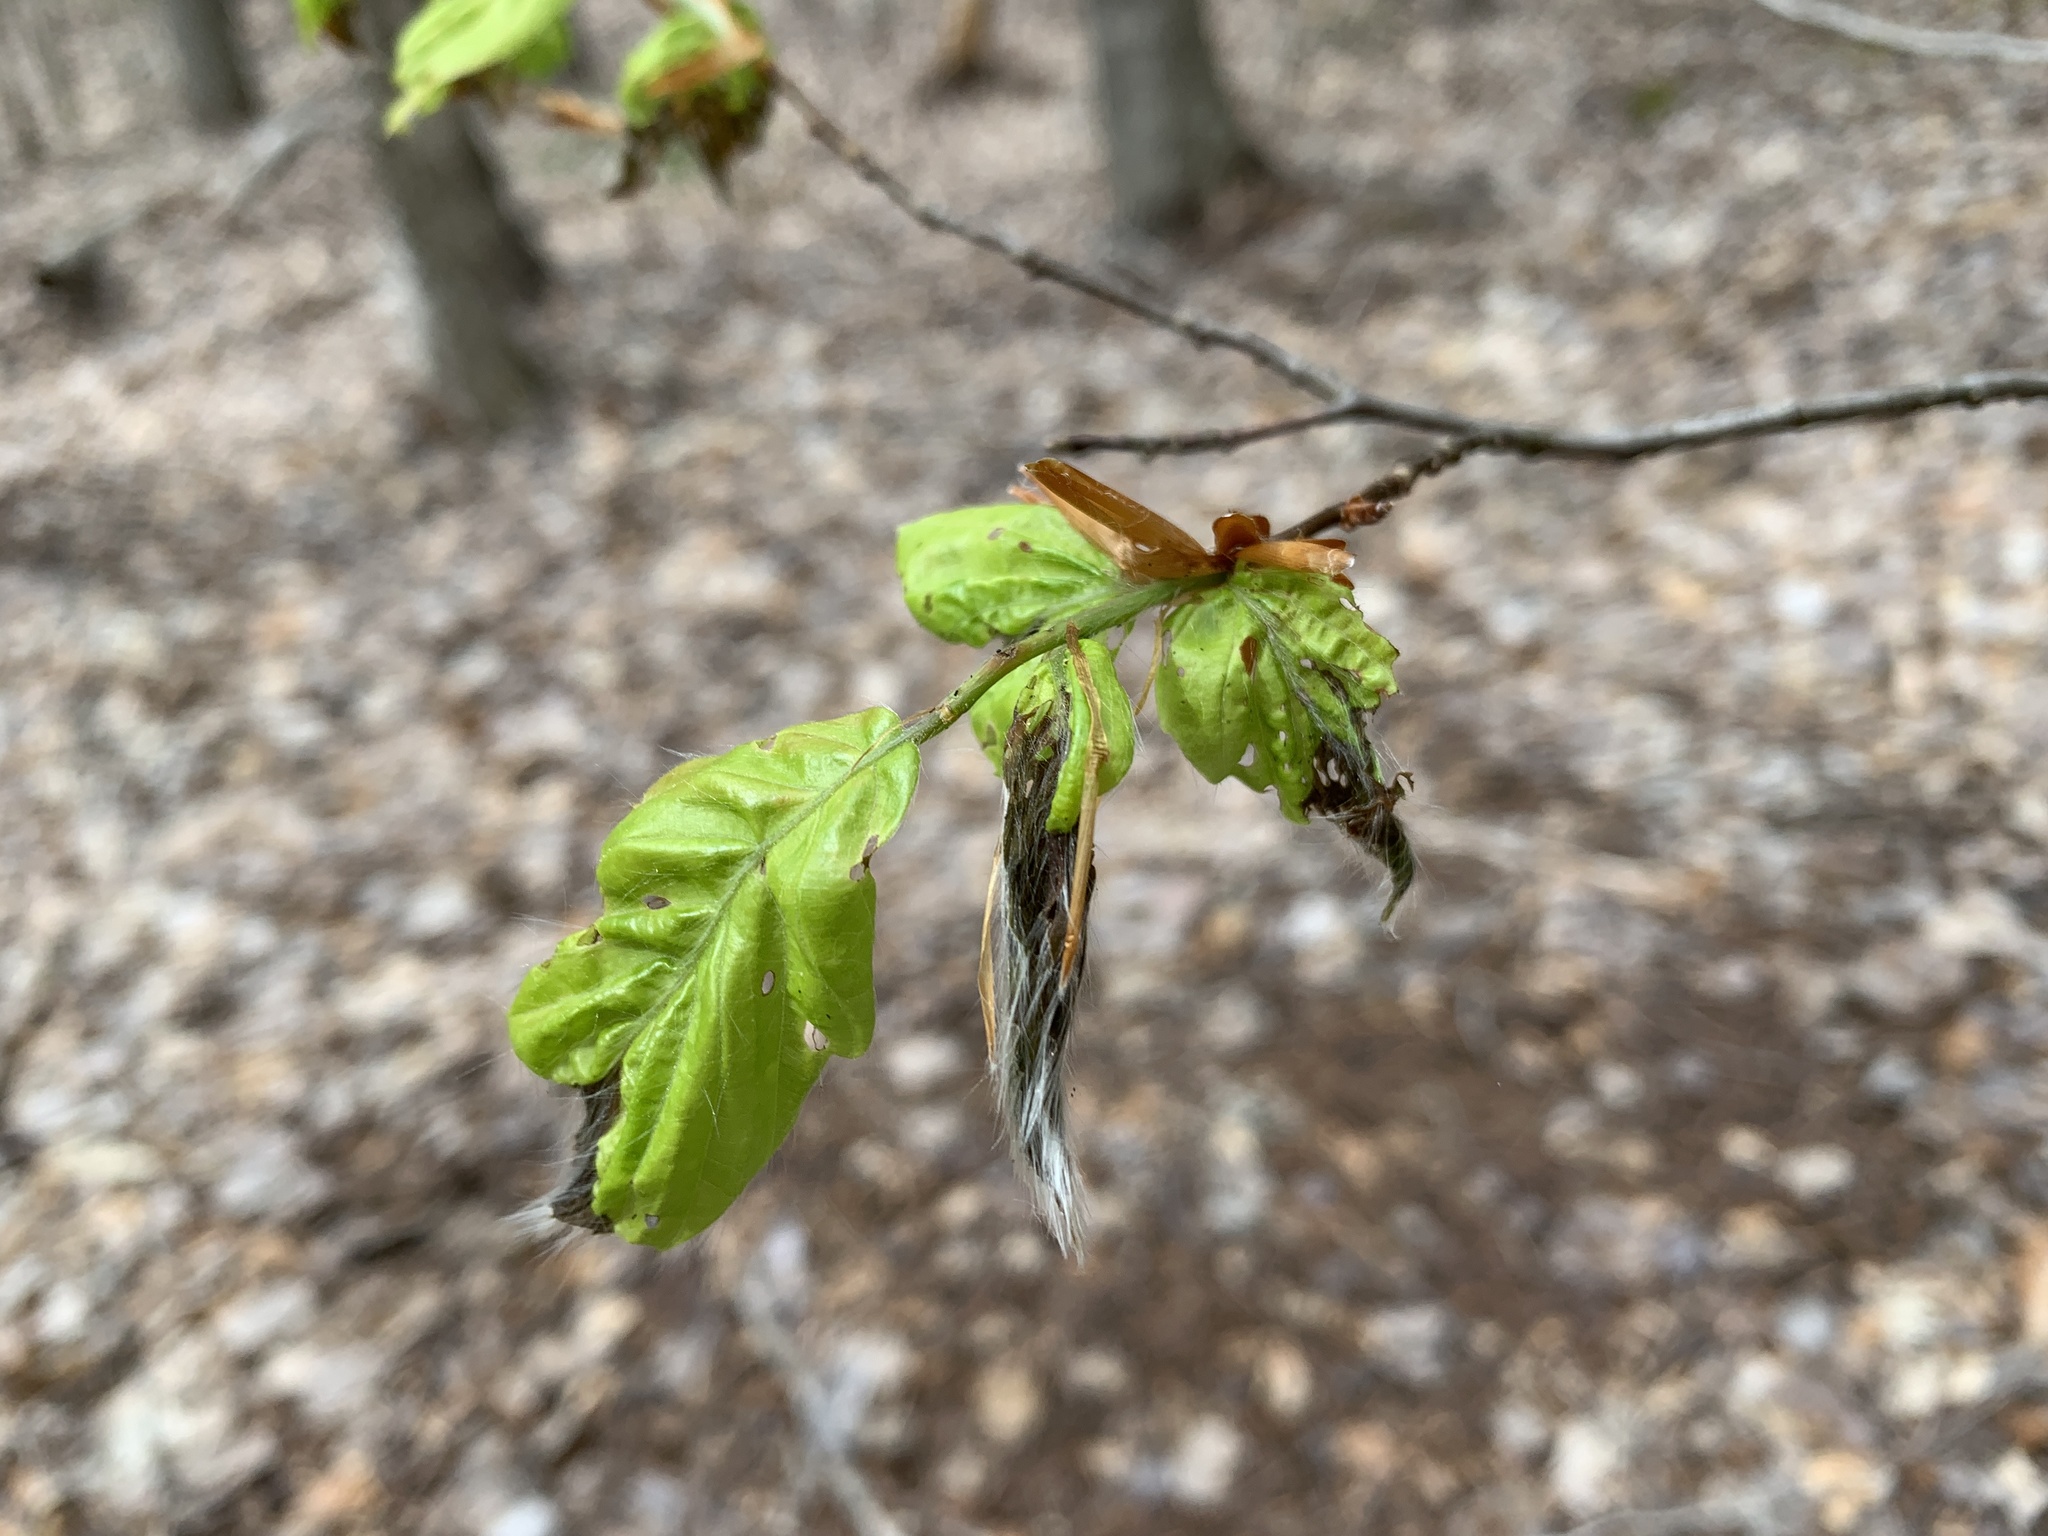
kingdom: Animalia
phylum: Arthropoda
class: Insecta
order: Coleoptera
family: Curculionidae
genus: Orchestes
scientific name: Orchestes fagi
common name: Beech leaf miner
